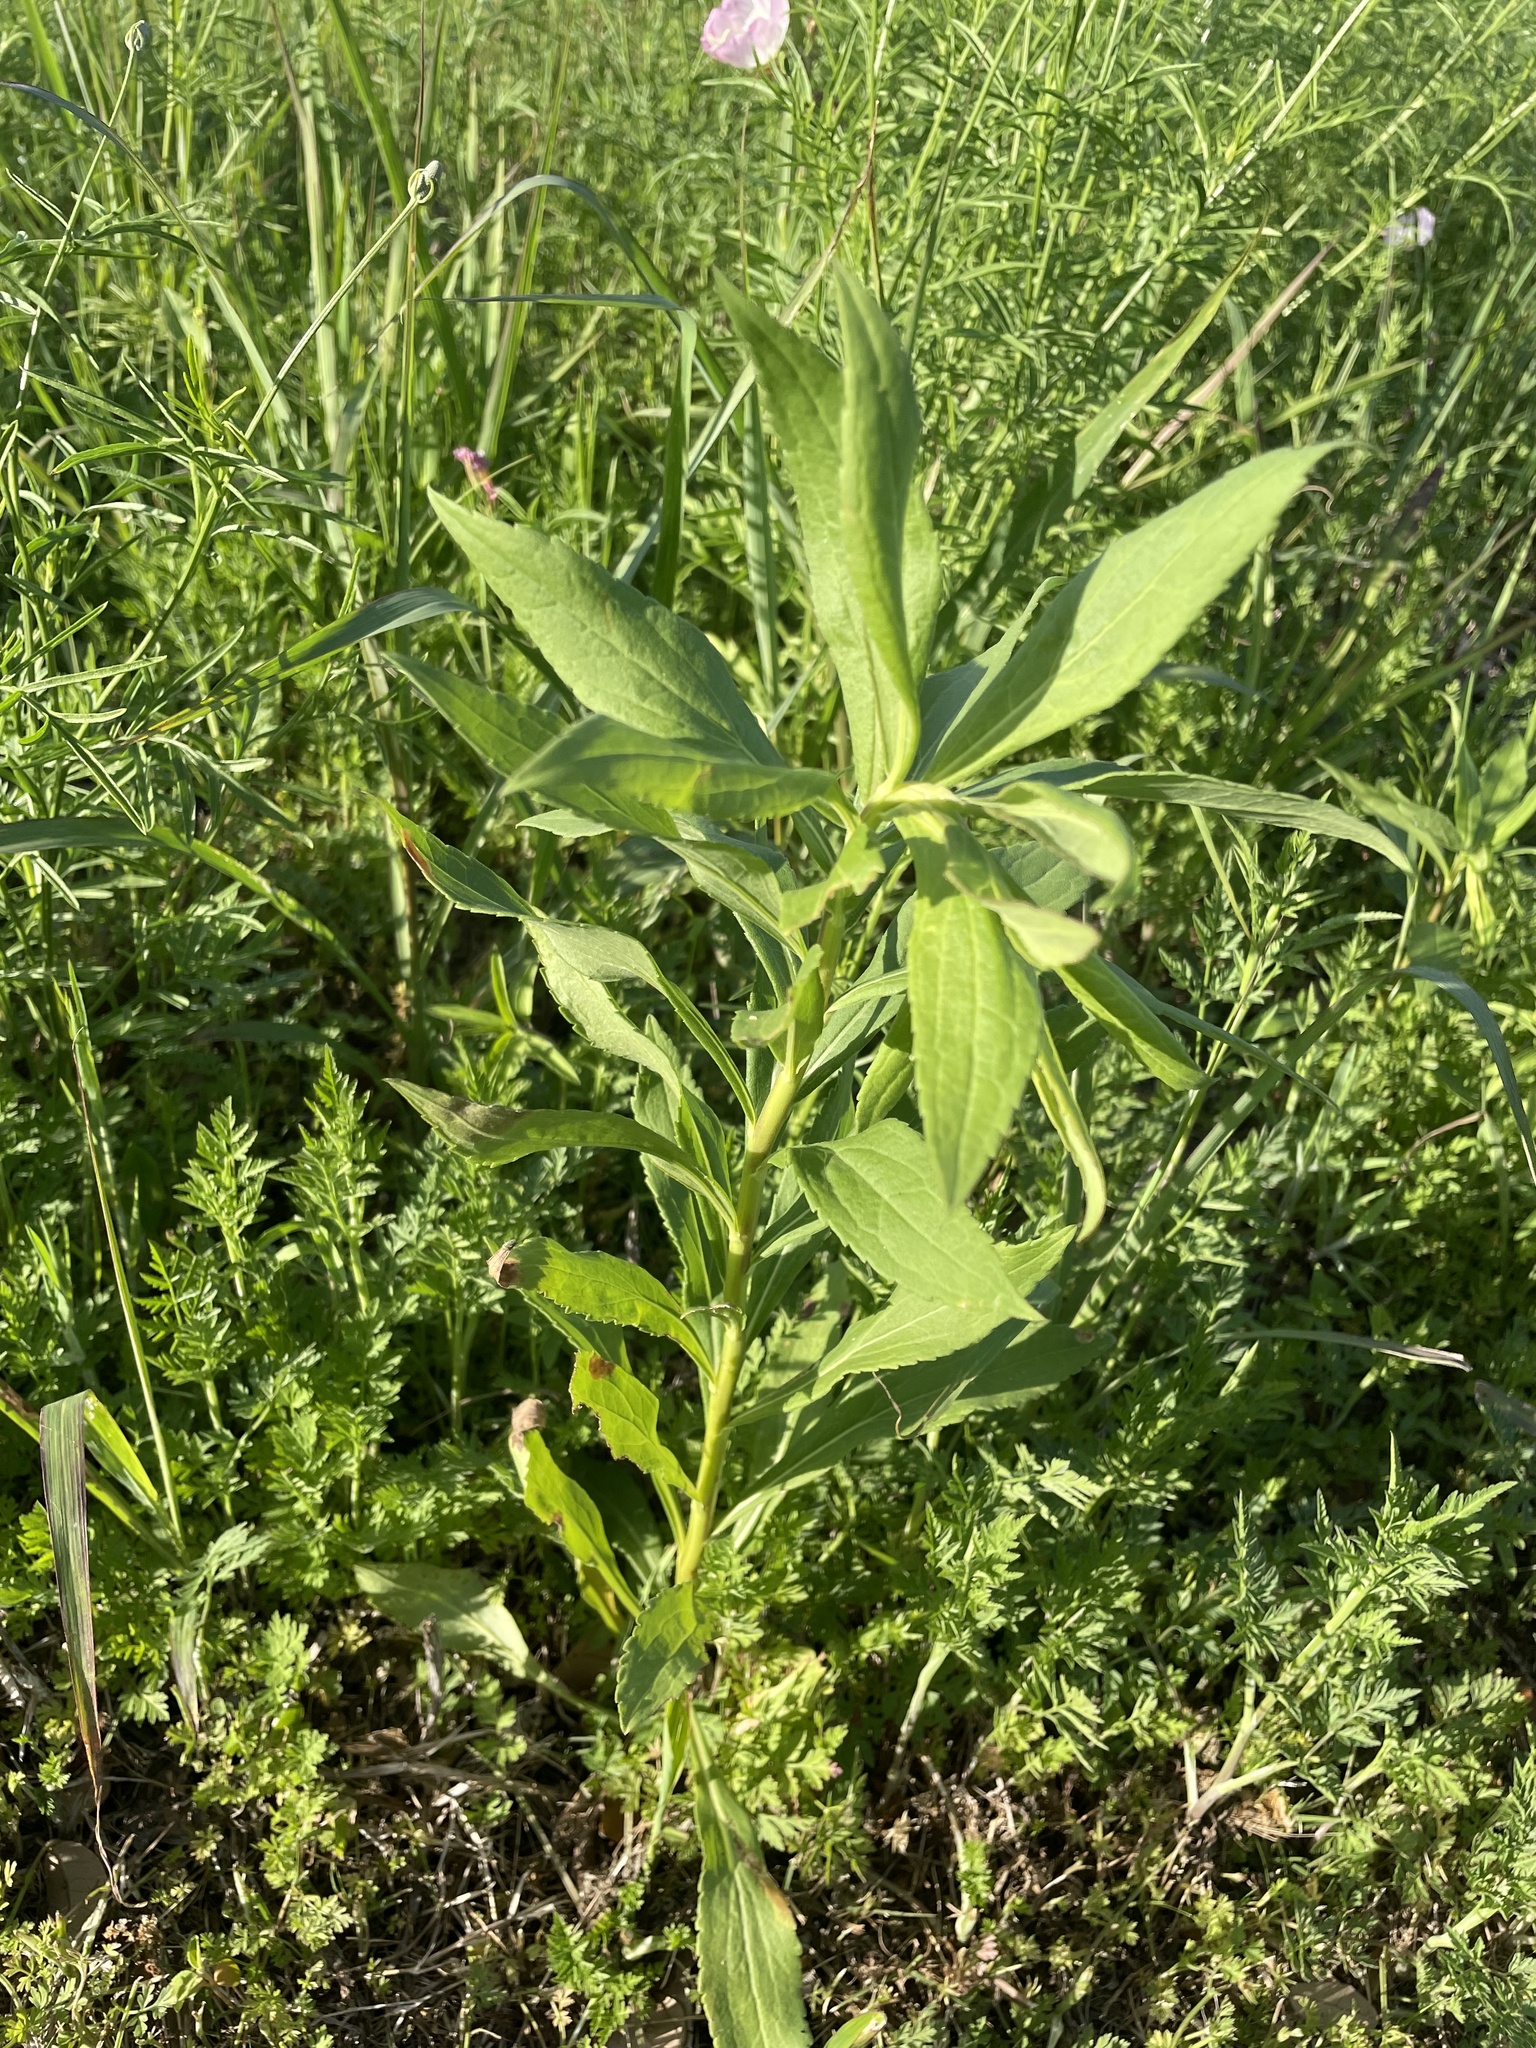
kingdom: Plantae
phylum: Tracheophyta
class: Magnoliopsida
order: Asterales
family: Asteraceae
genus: Solidago
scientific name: Solidago altissima
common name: Late goldenrod
